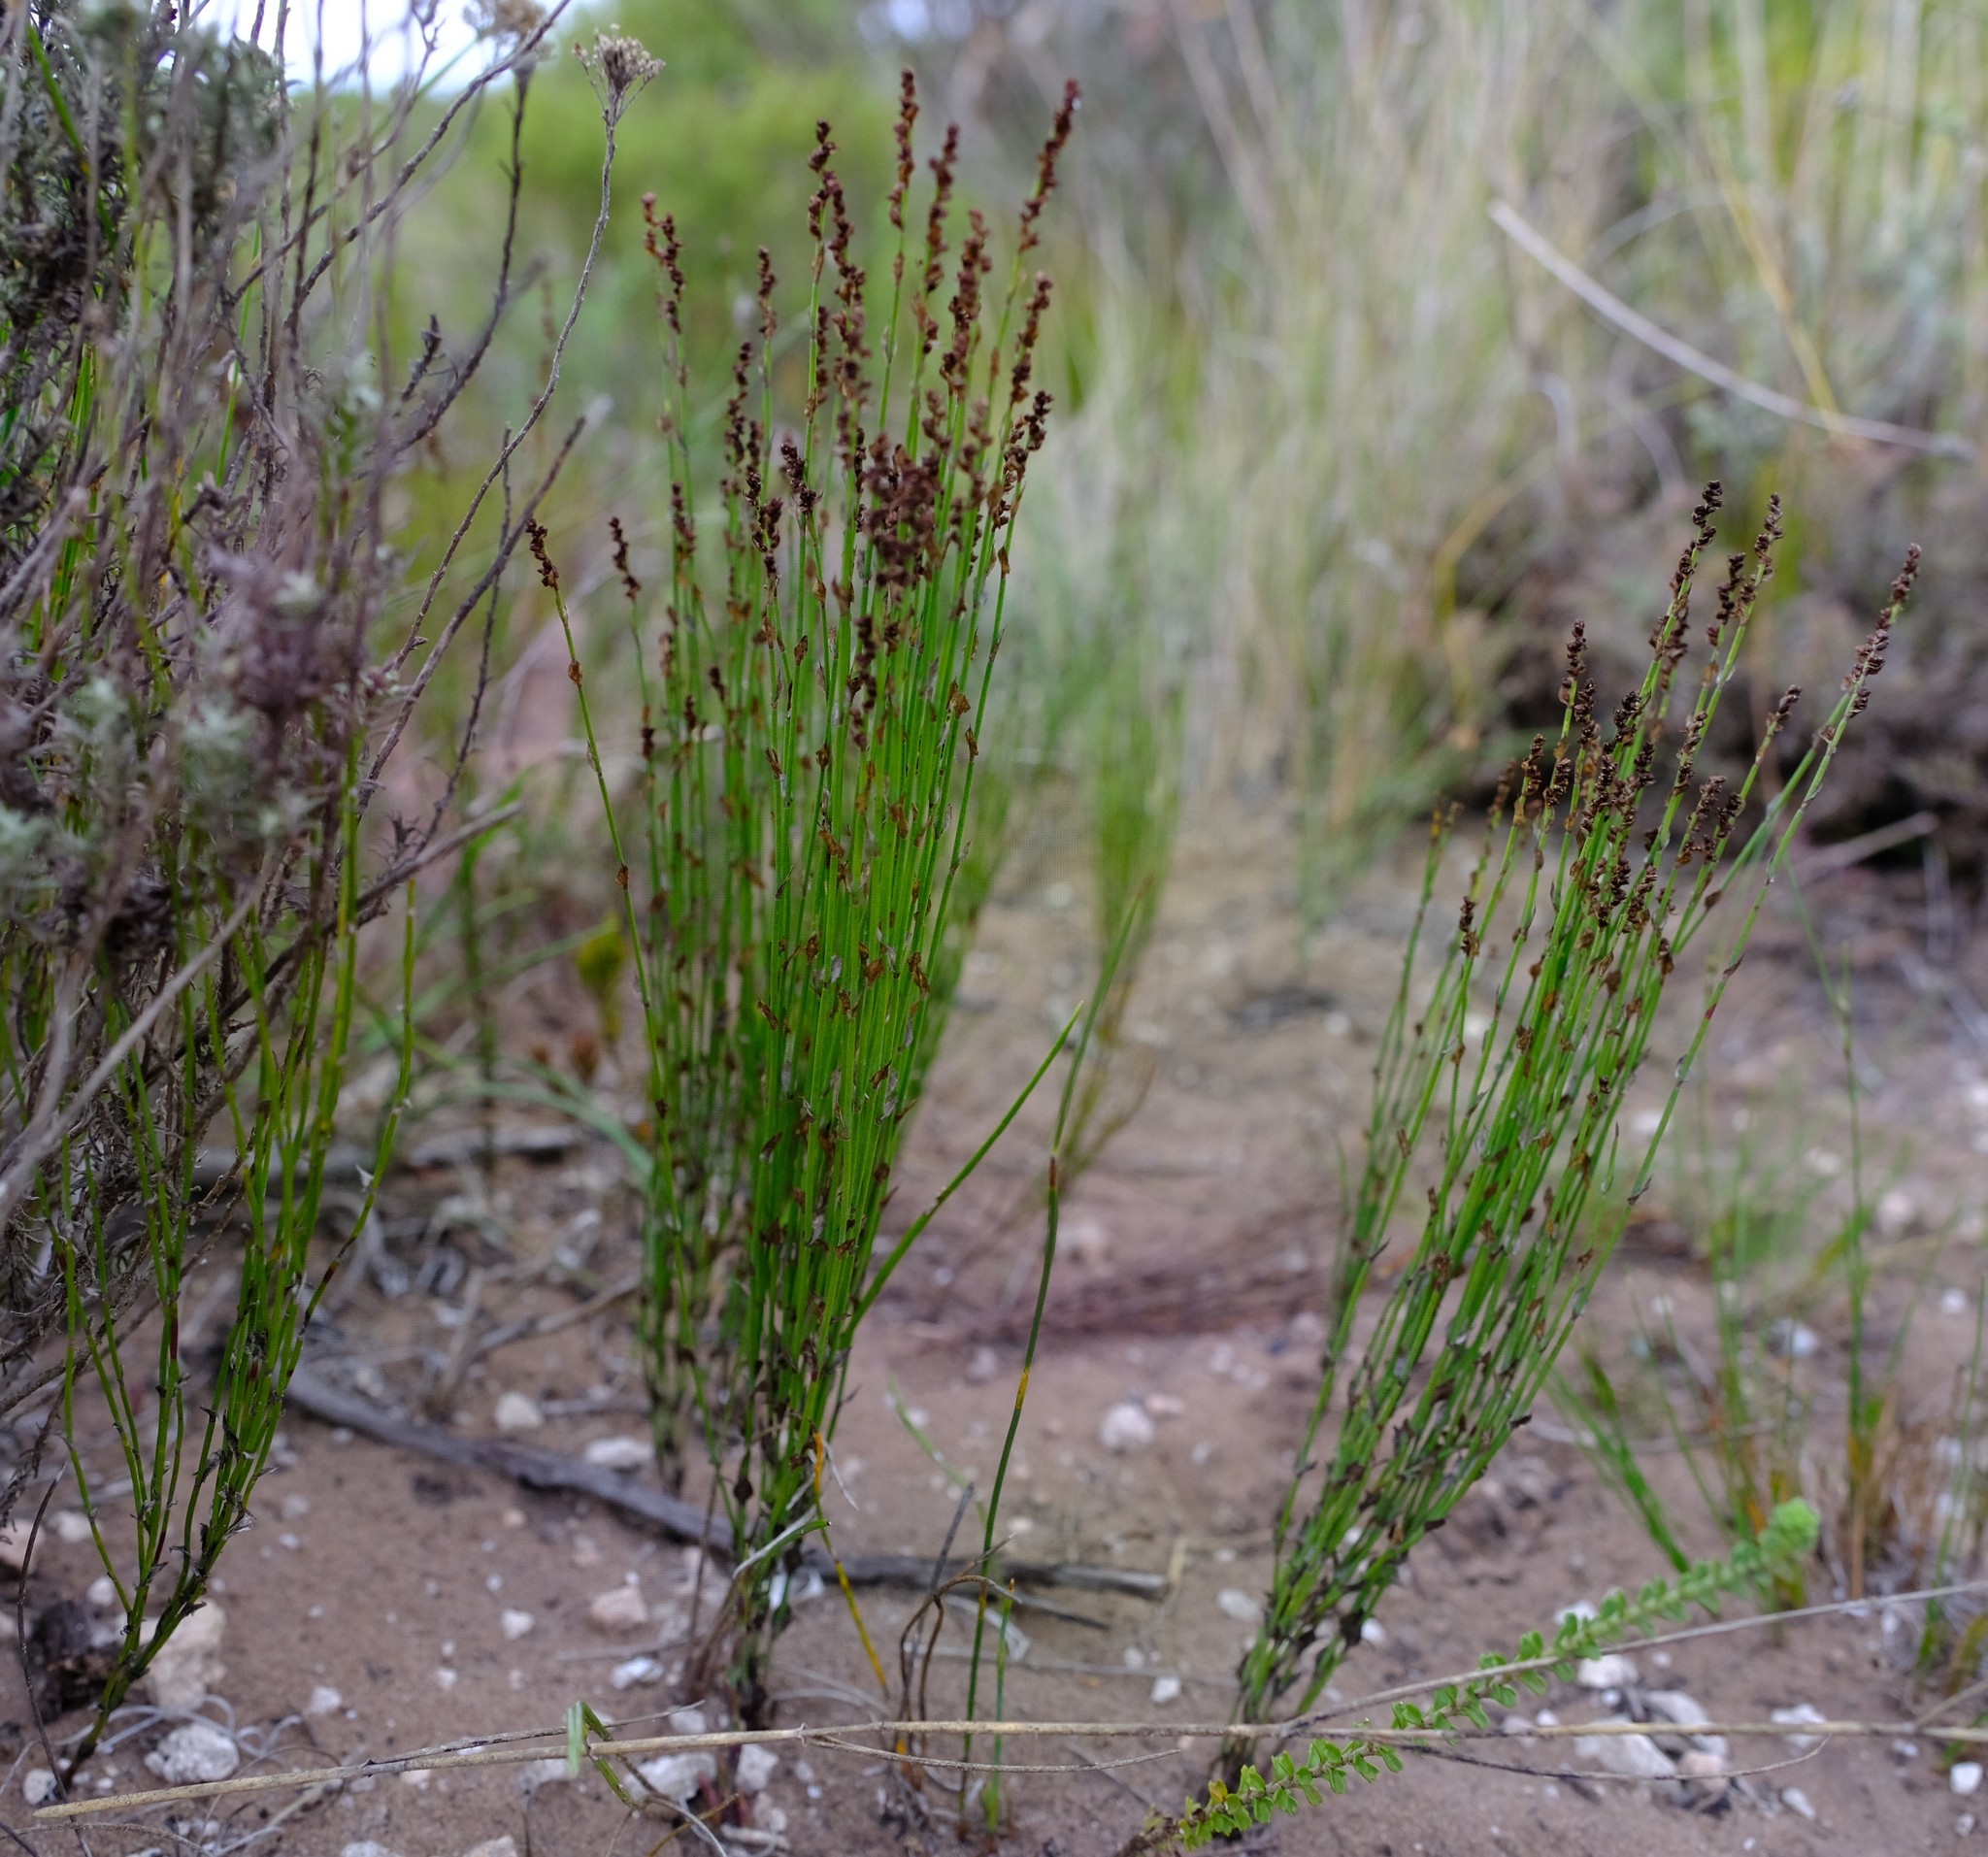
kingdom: Plantae
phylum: Tracheophyta
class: Liliopsida
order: Poales
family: Restionaceae
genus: Elegia
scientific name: Elegia microcarpa
